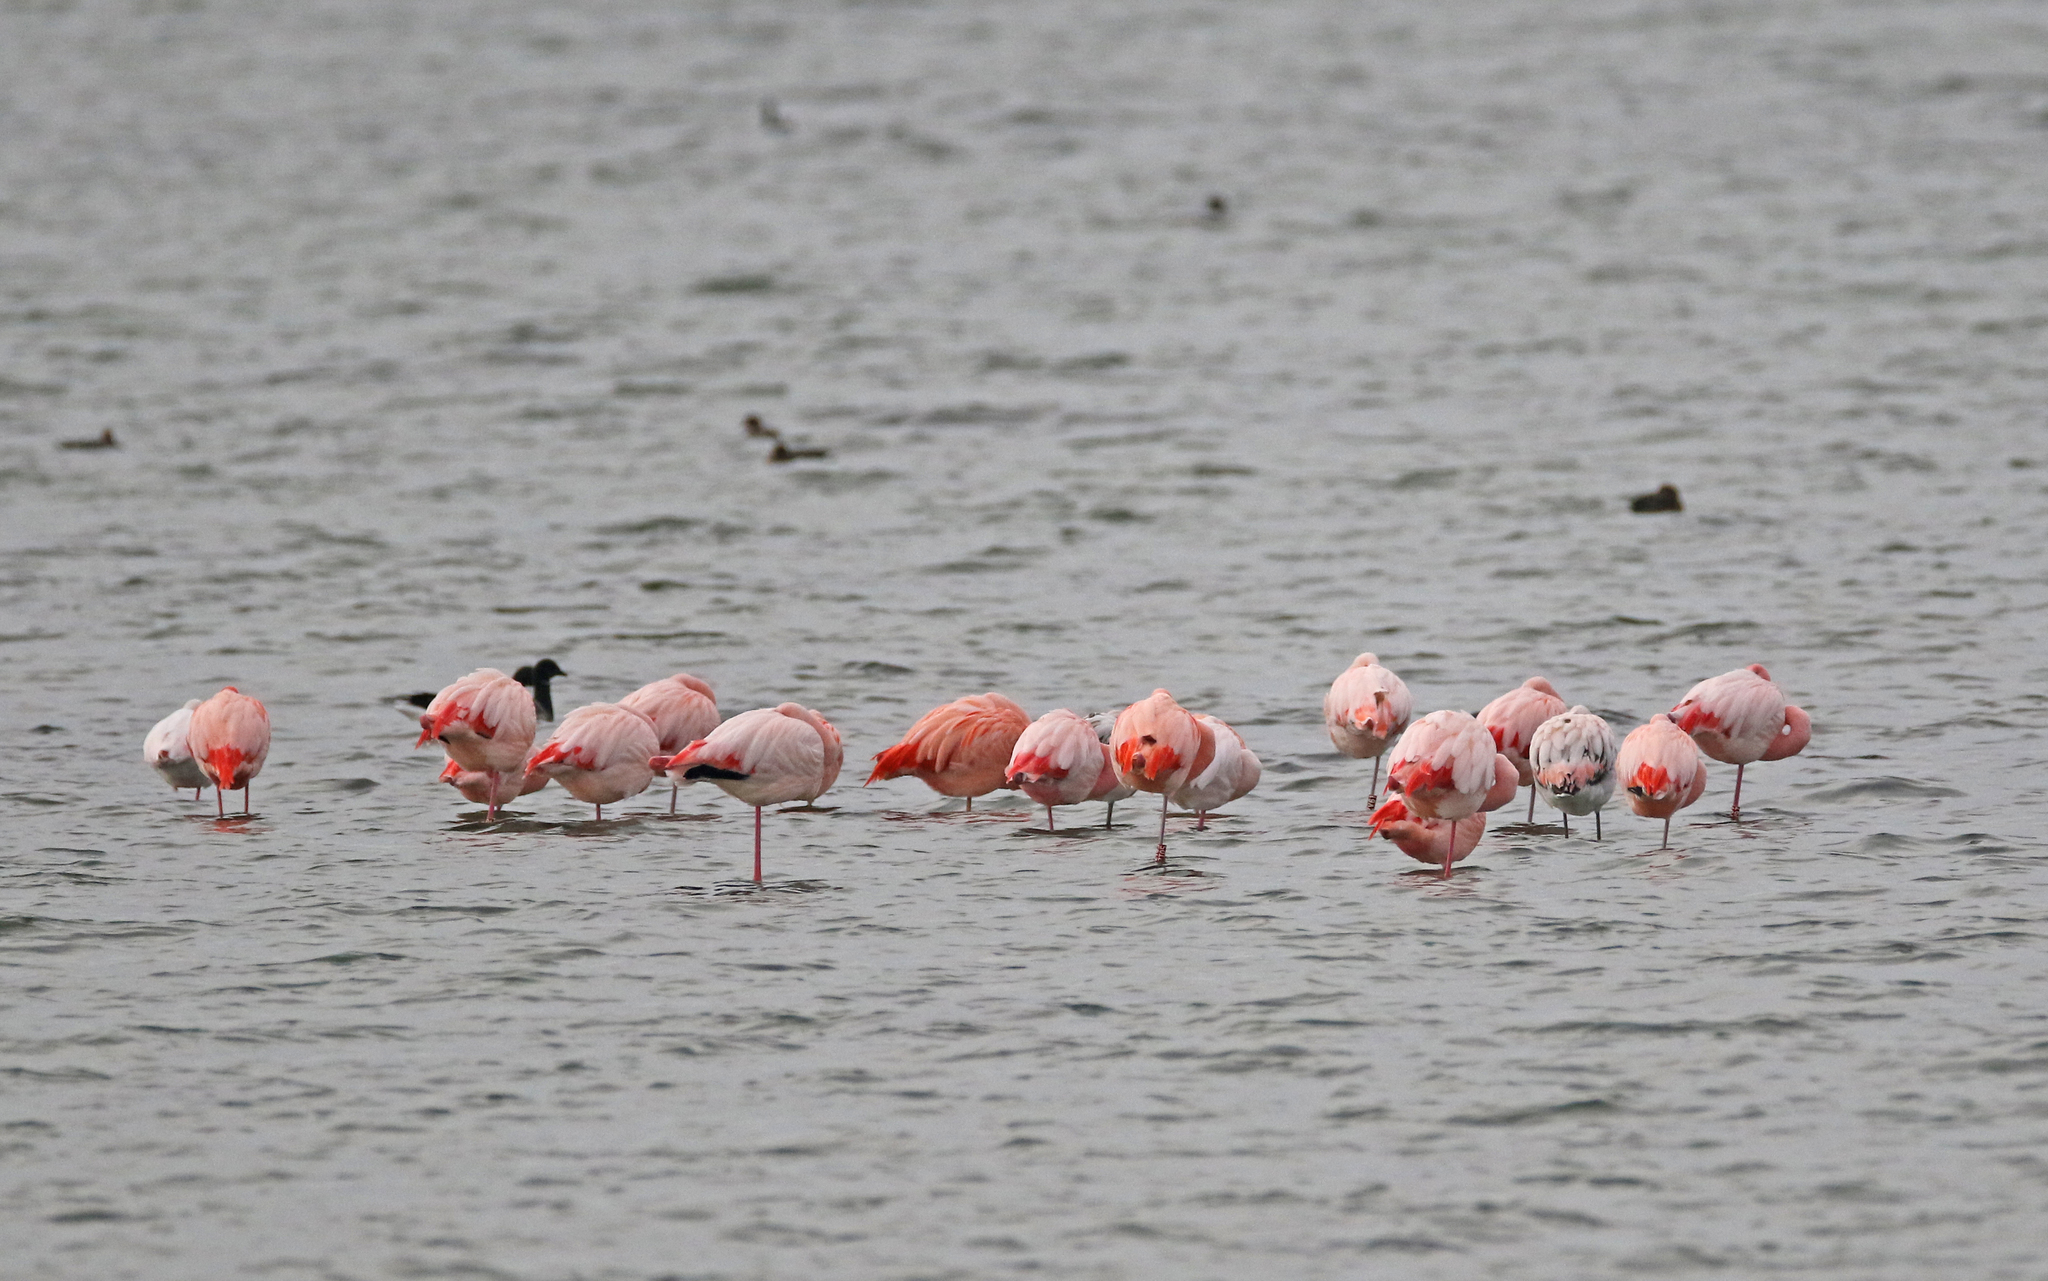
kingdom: Animalia
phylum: Chordata
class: Aves
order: Phoenicopteriformes
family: Phoenicopteridae
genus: Phoenicopterus
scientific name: Phoenicopterus roseus
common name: Greater flamingo
